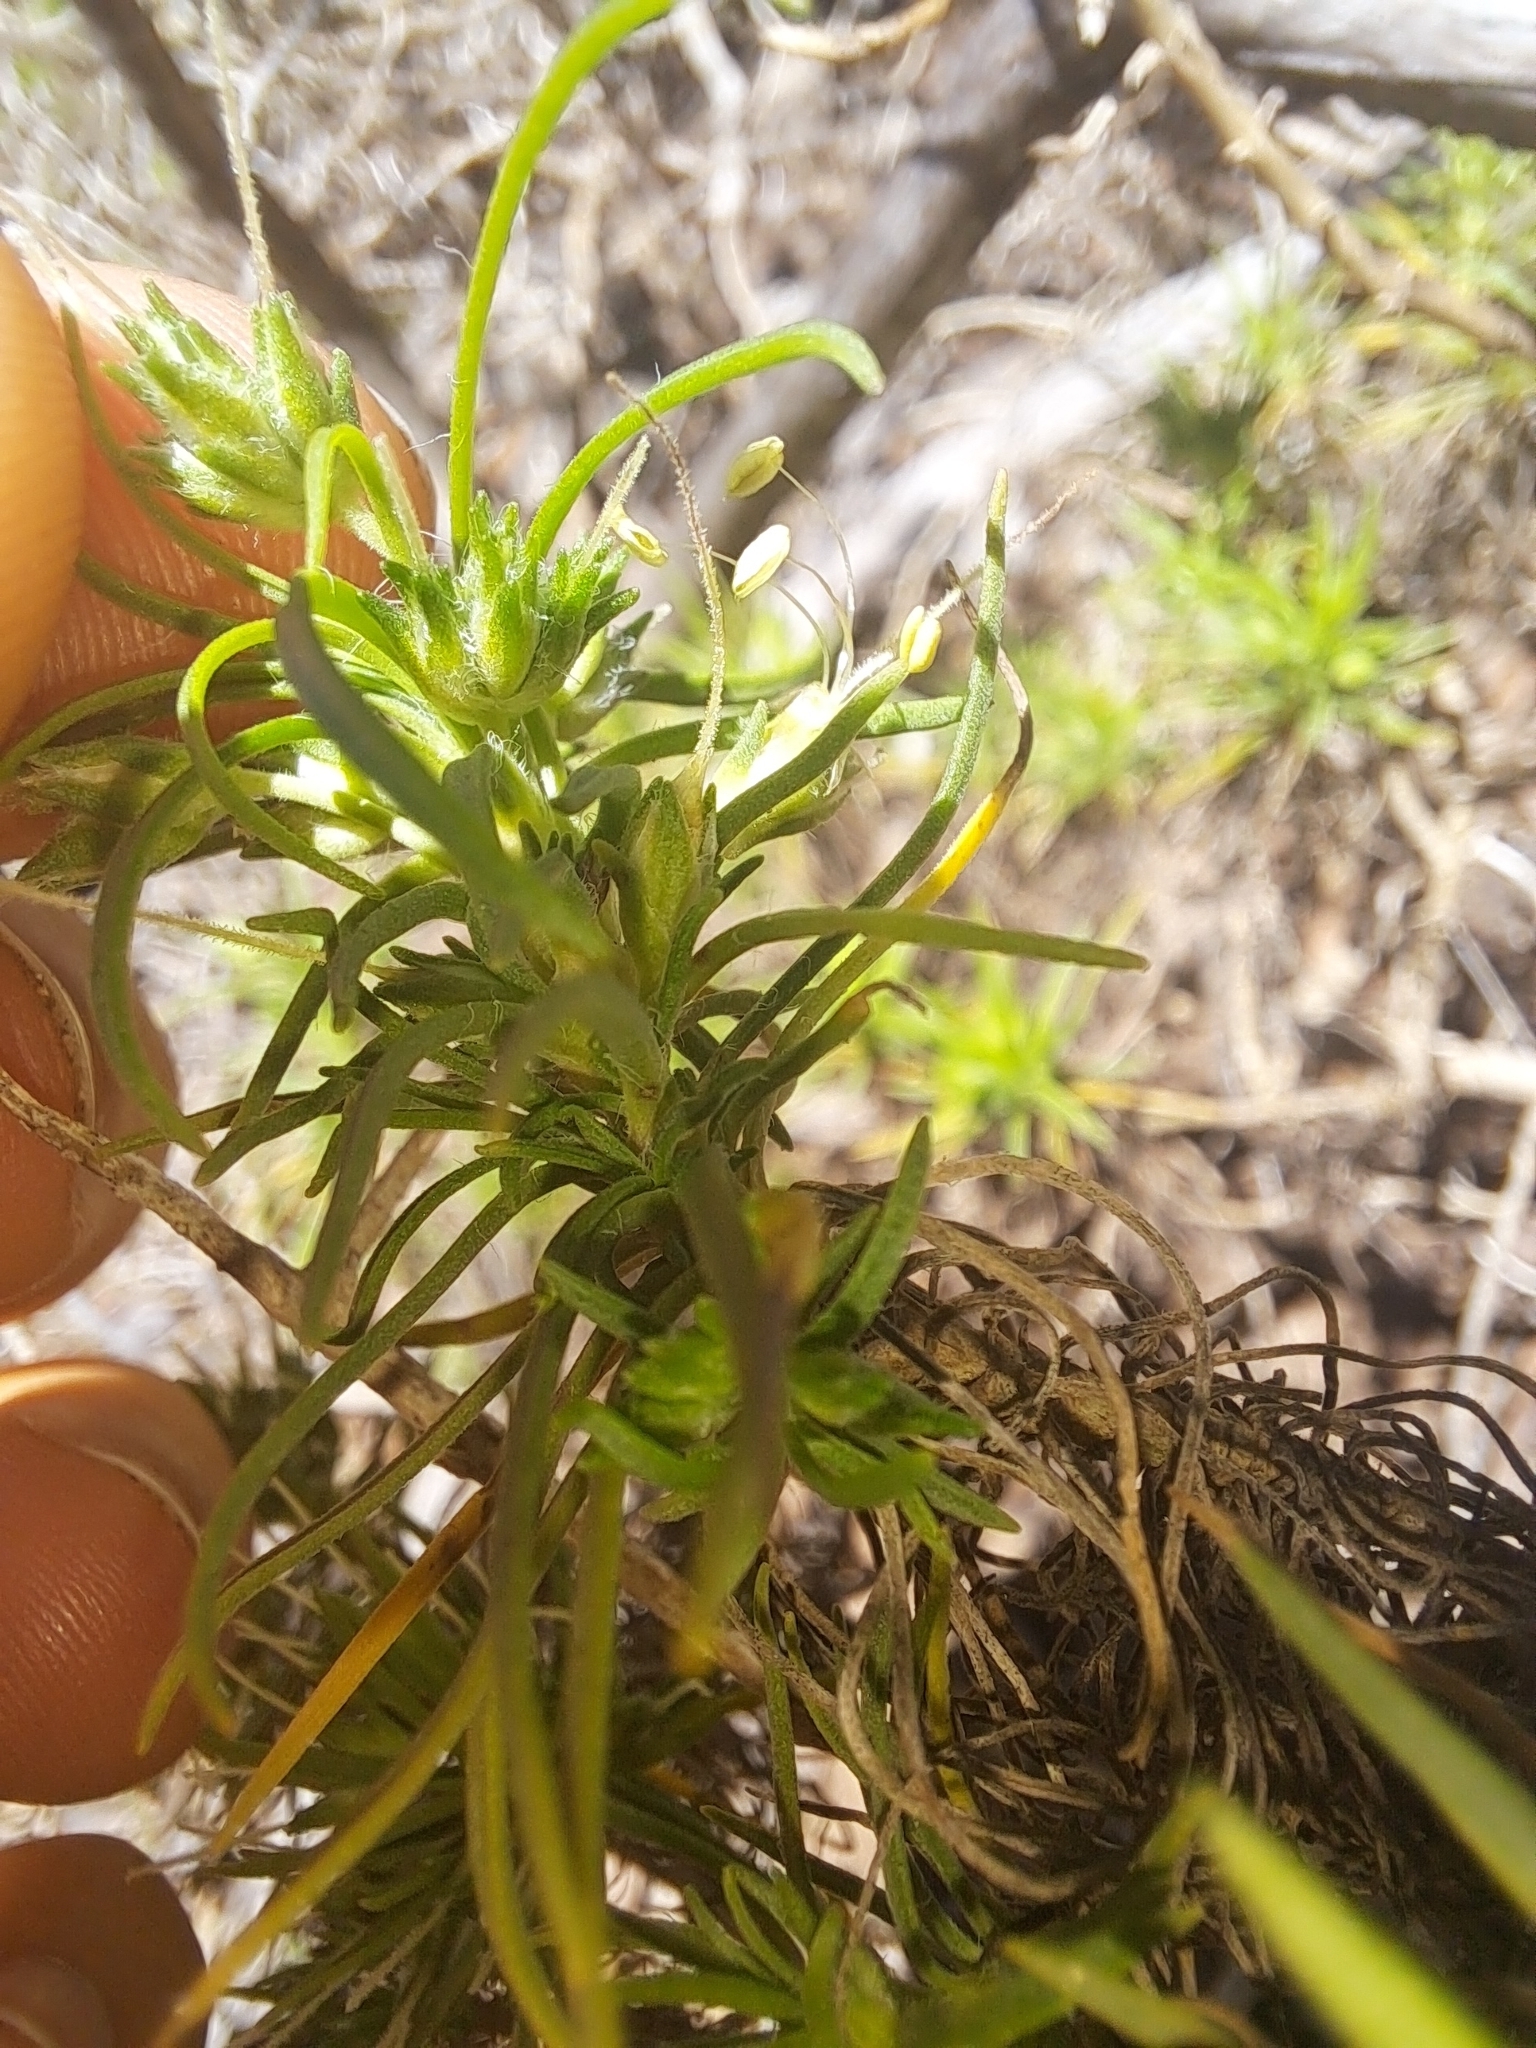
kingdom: Plantae
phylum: Tracheophyta
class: Magnoliopsida
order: Lamiales
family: Plantaginaceae
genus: Plantago
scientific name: Plantago arborescens
